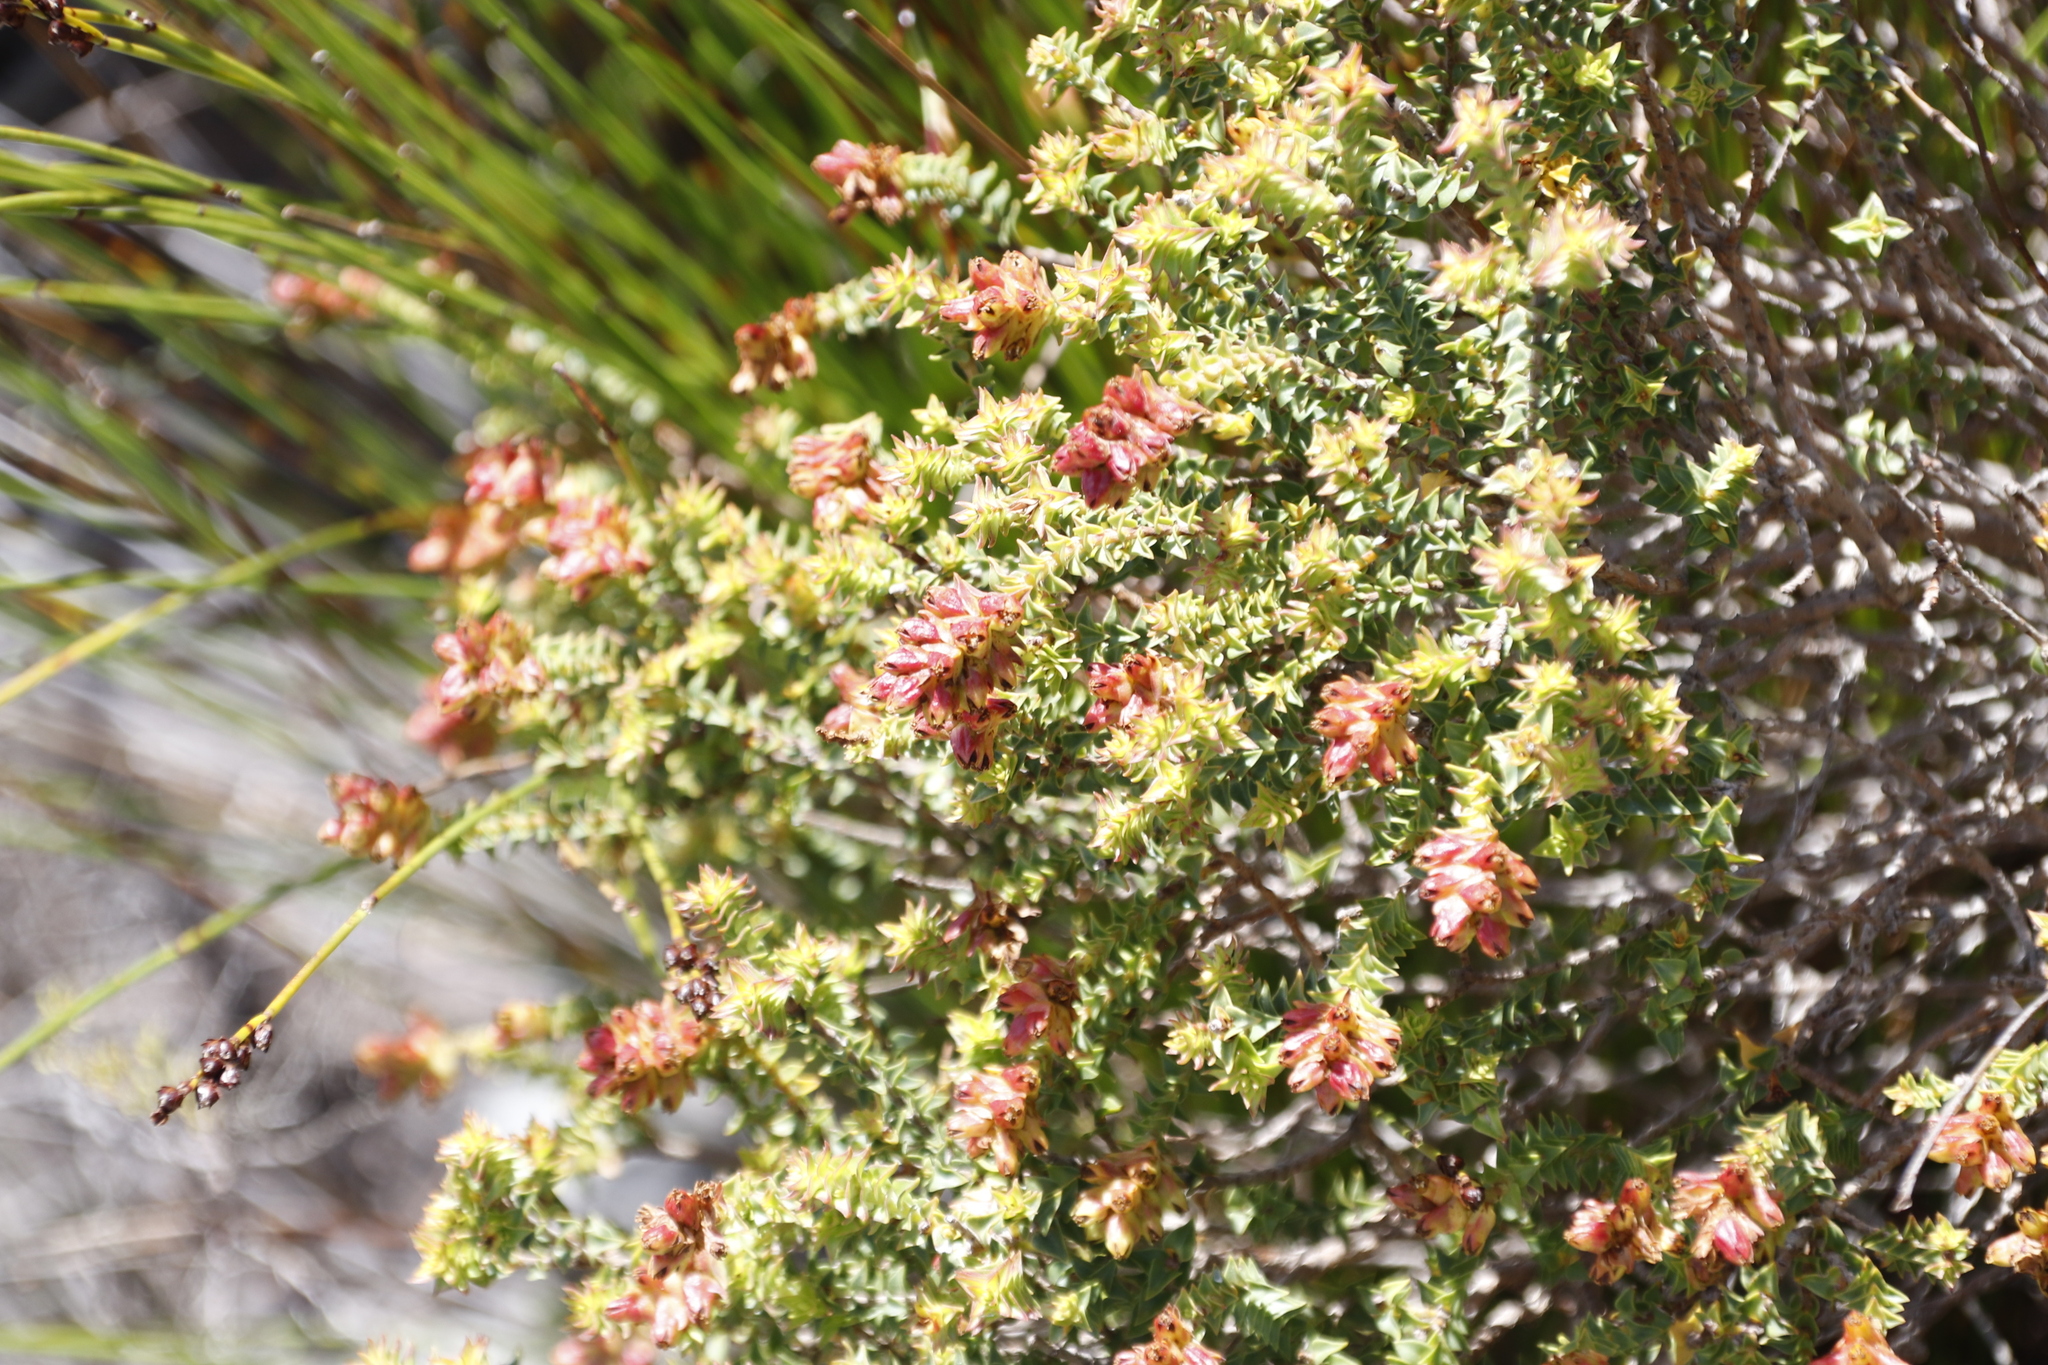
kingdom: Plantae
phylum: Tracheophyta
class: Magnoliopsida
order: Myrtales
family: Penaeaceae
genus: Penaea
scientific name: Penaea mucronata
